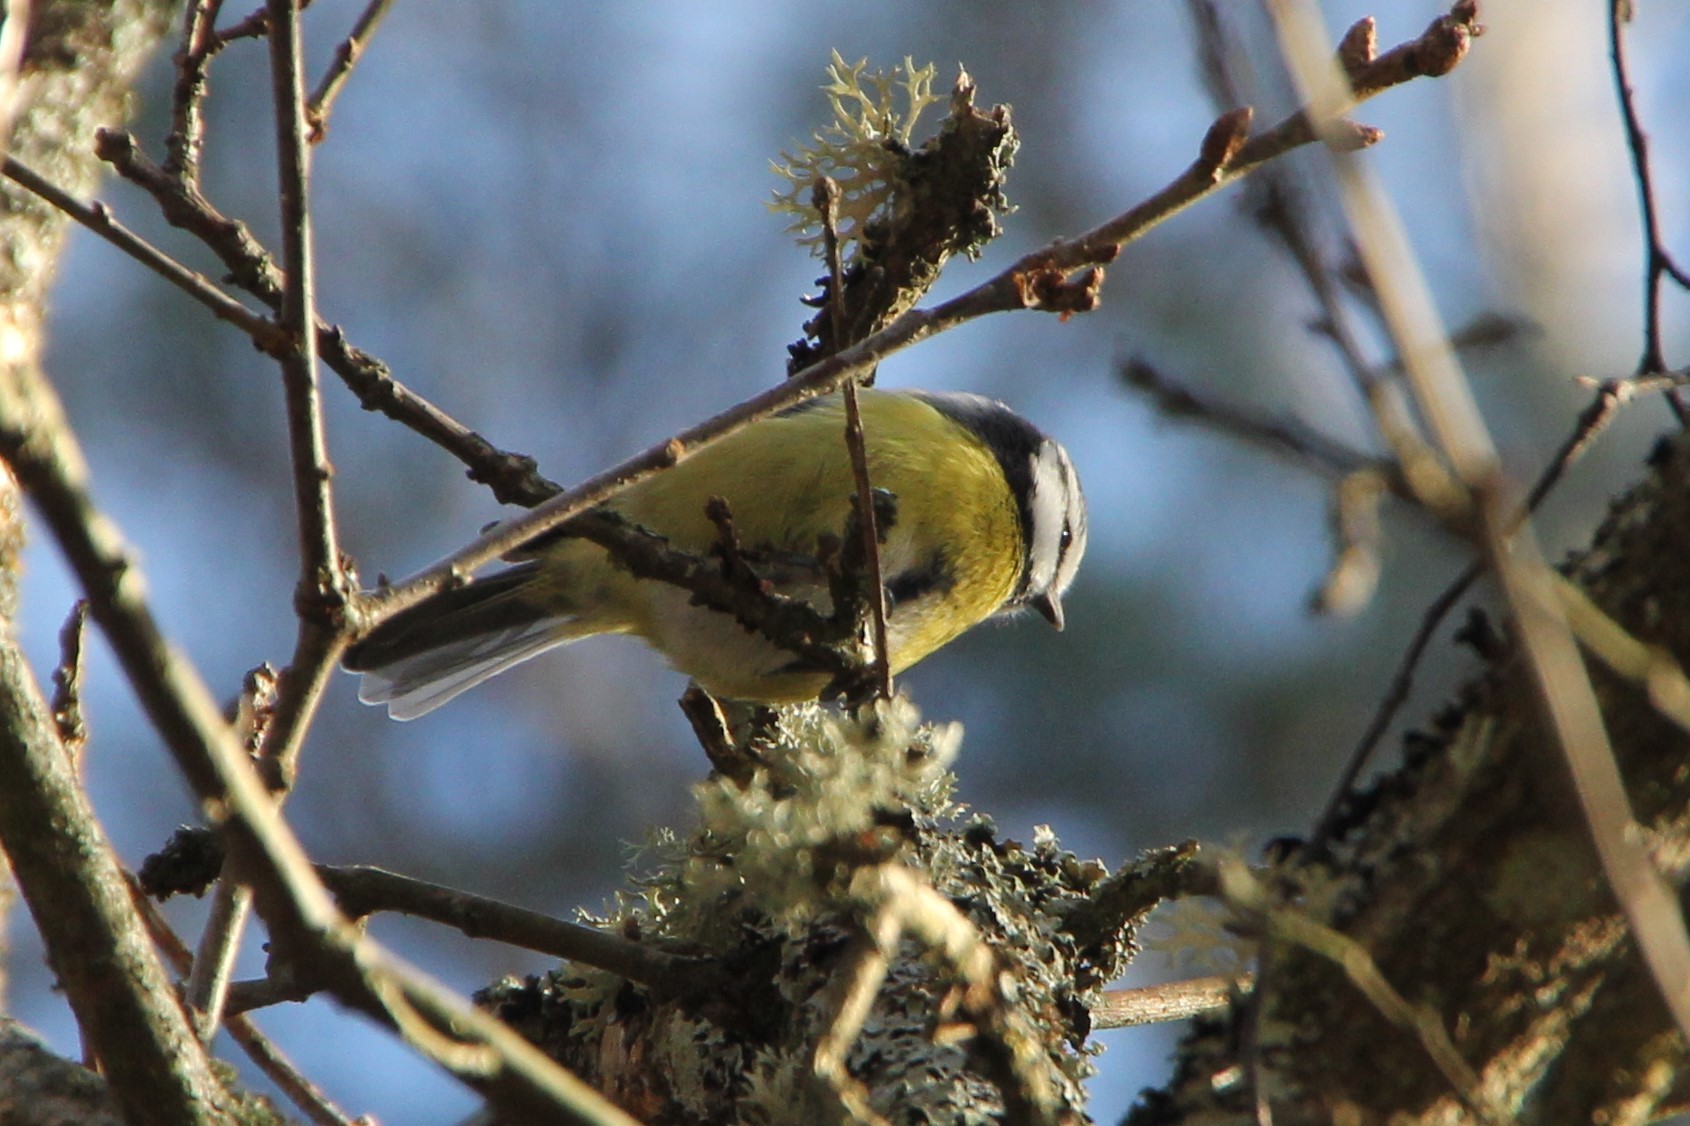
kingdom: Animalia
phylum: Chordata
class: Aves
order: Passeriformes
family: Paridae
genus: Cyanistes
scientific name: Cyanistes caeruleus
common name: Eurasian blue tit
